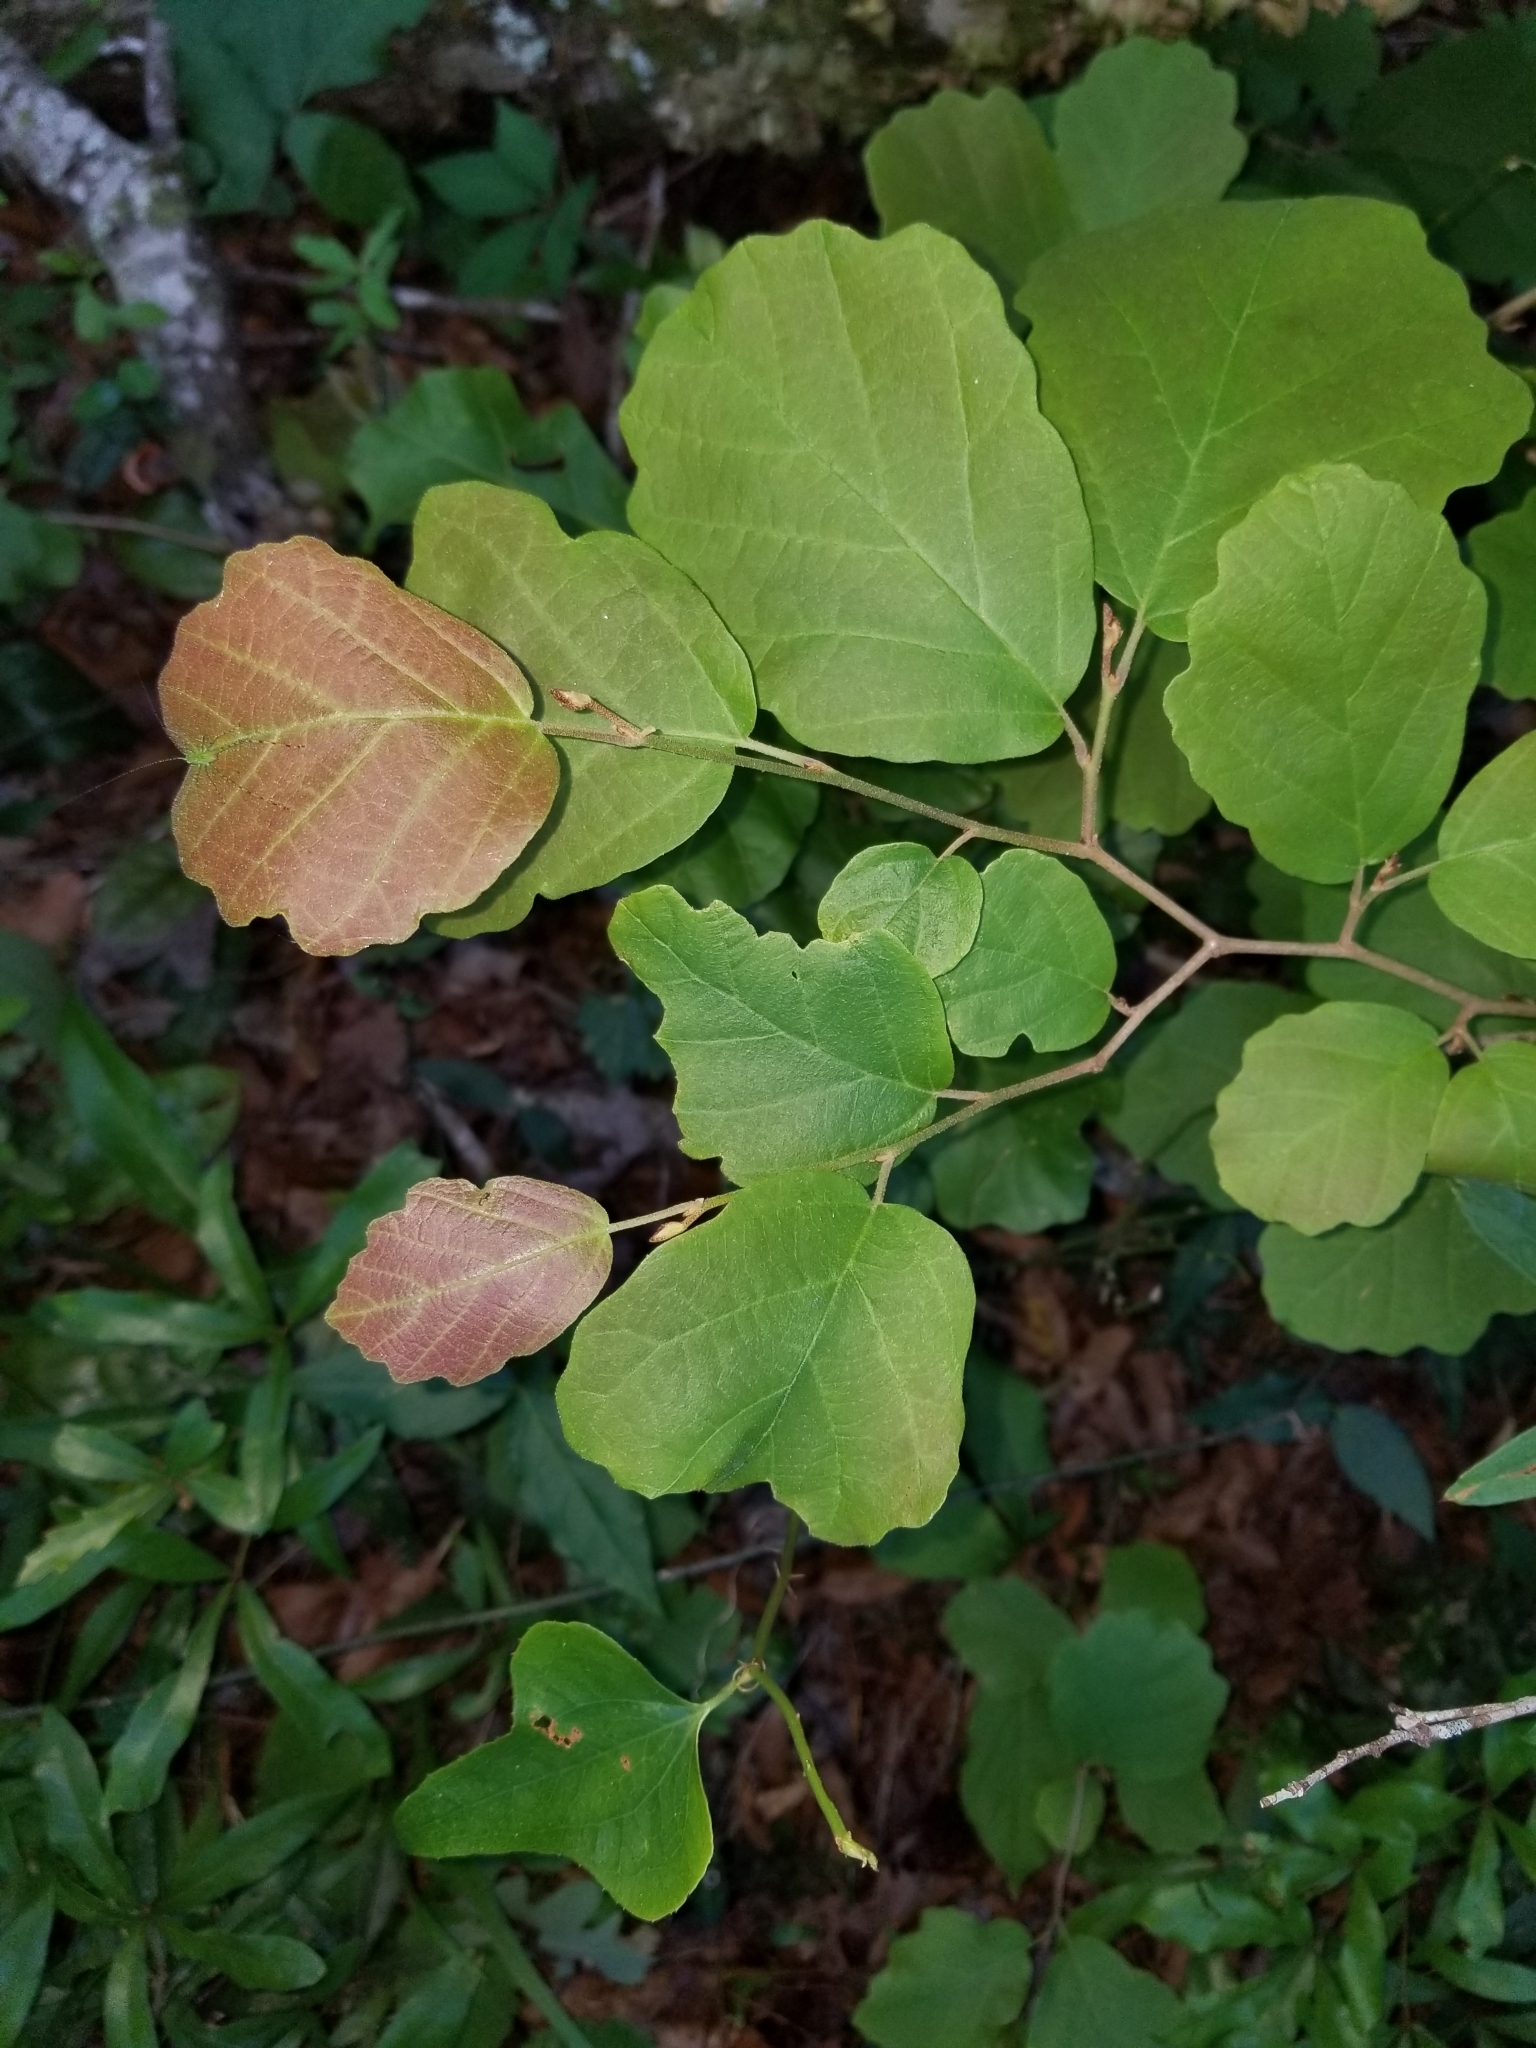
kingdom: Plantae
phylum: Tracheophyta
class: Magnoliopsida
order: Saxifragales
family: Hamamelidaceae
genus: Hamamelis
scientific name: Hamamelis virginiana
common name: Witch-hazel
